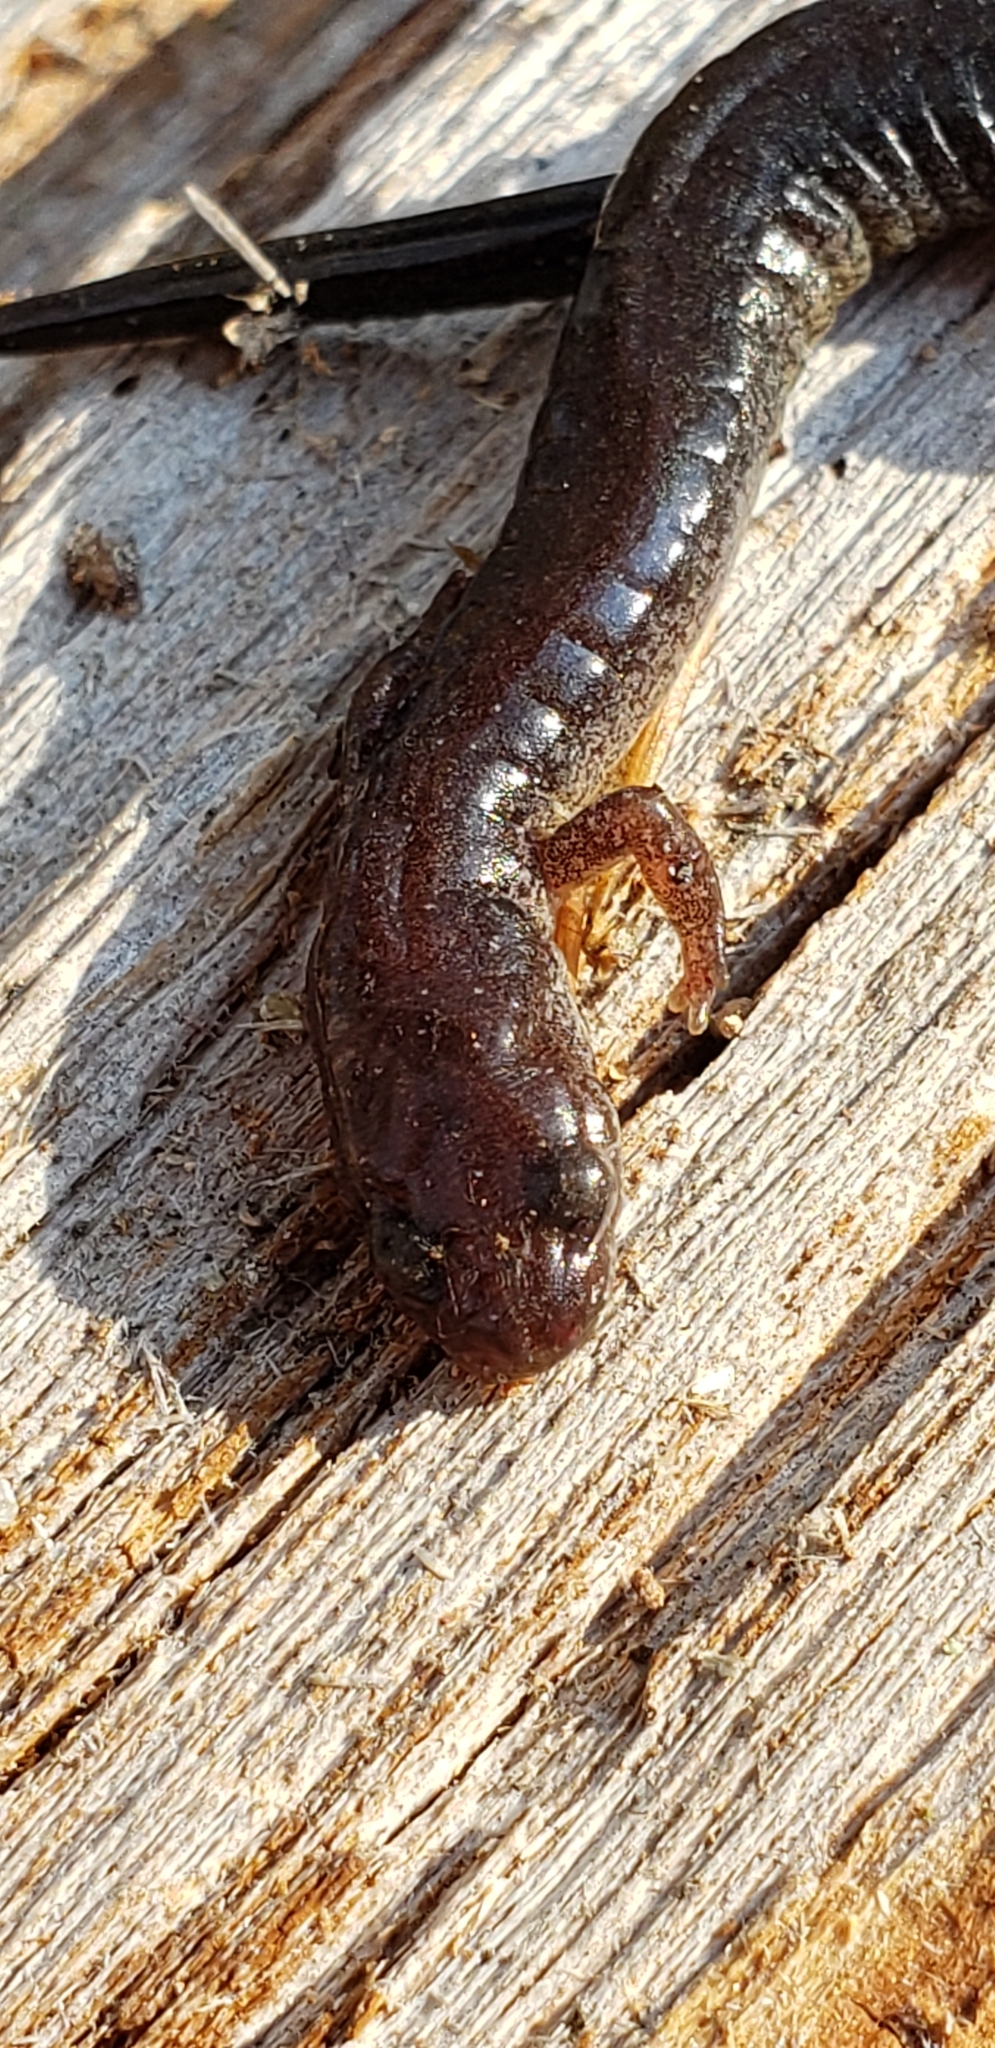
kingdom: Animalia
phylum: Chordata
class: Amphibia
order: Caudata
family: Plethodontidae
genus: Plethodon
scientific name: Plethodon cinereus
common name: Redback salamander
